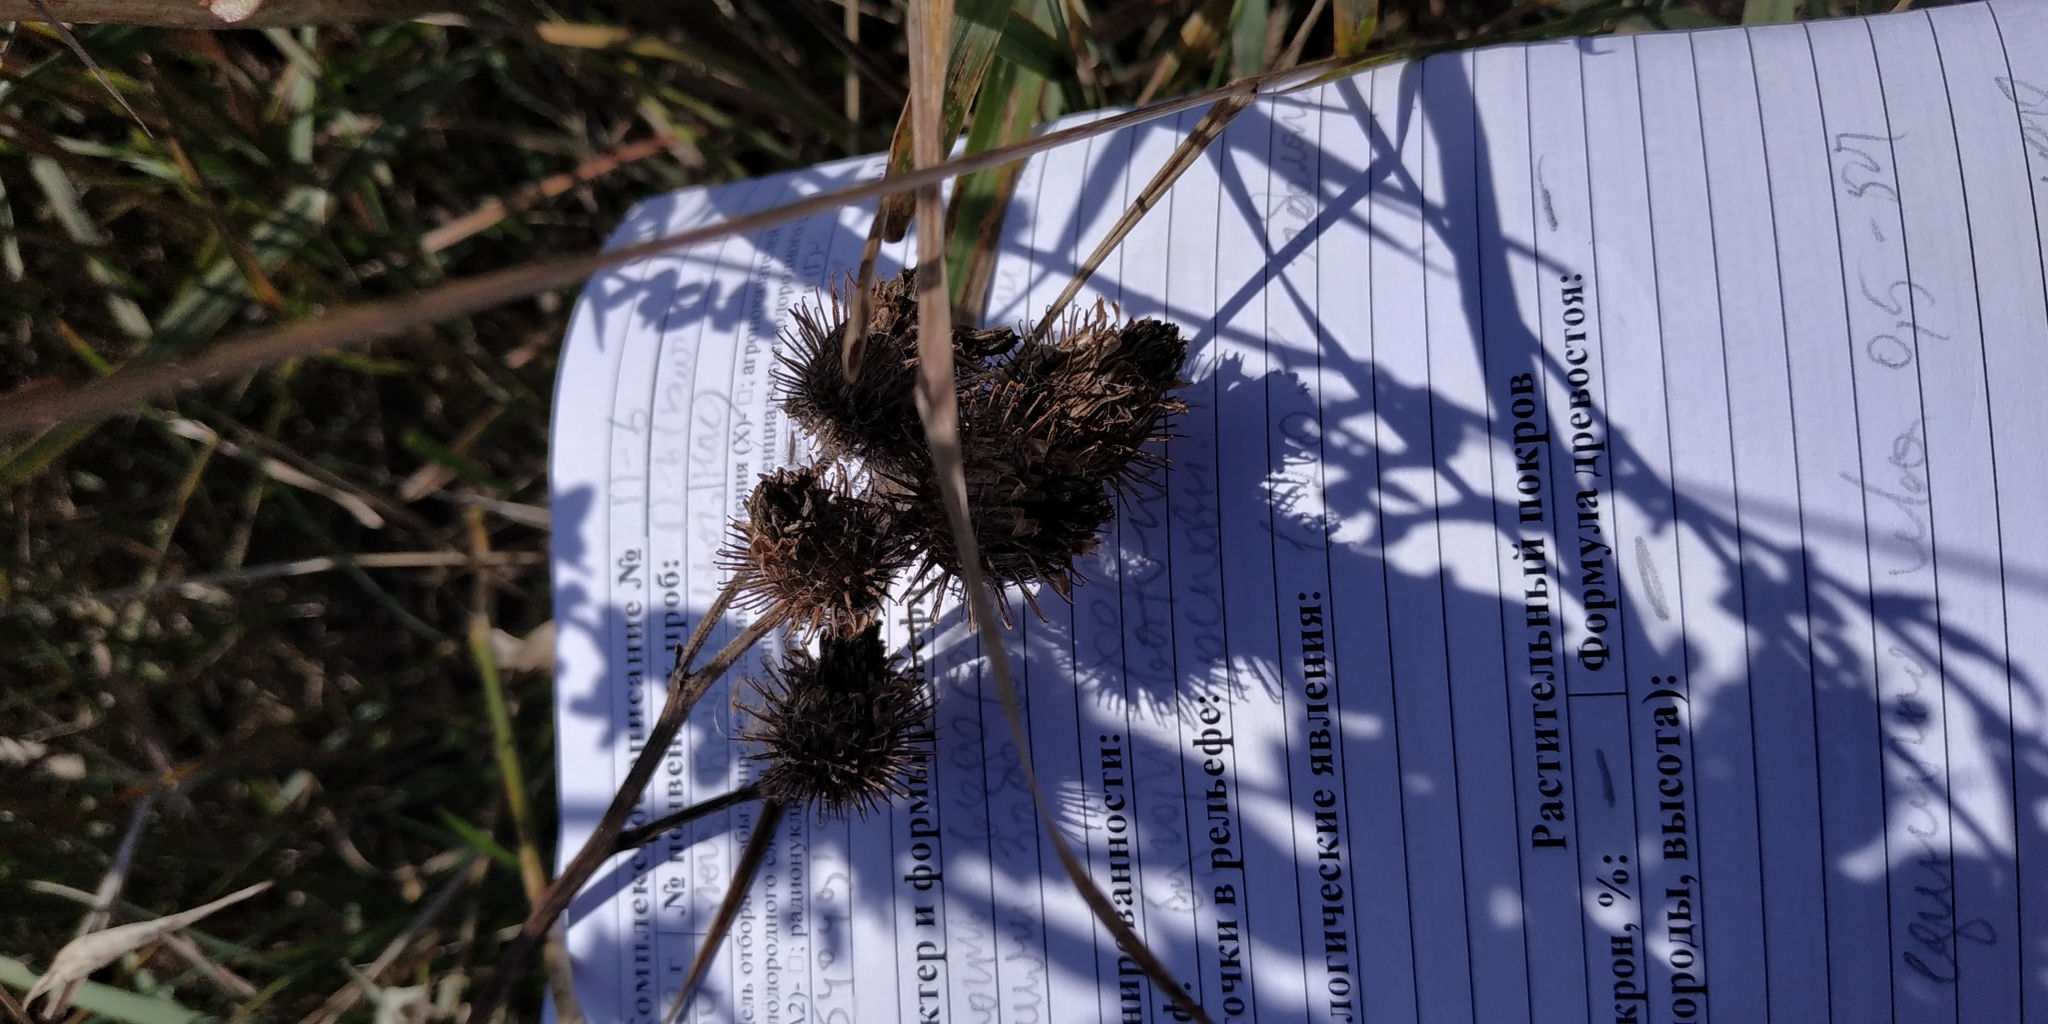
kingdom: Plantae
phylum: Tracheophyta
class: Magnoliopsida
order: Asterales
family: Asteraceae
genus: Arctium
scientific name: Arctium tomentosum
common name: Woolly burdock
